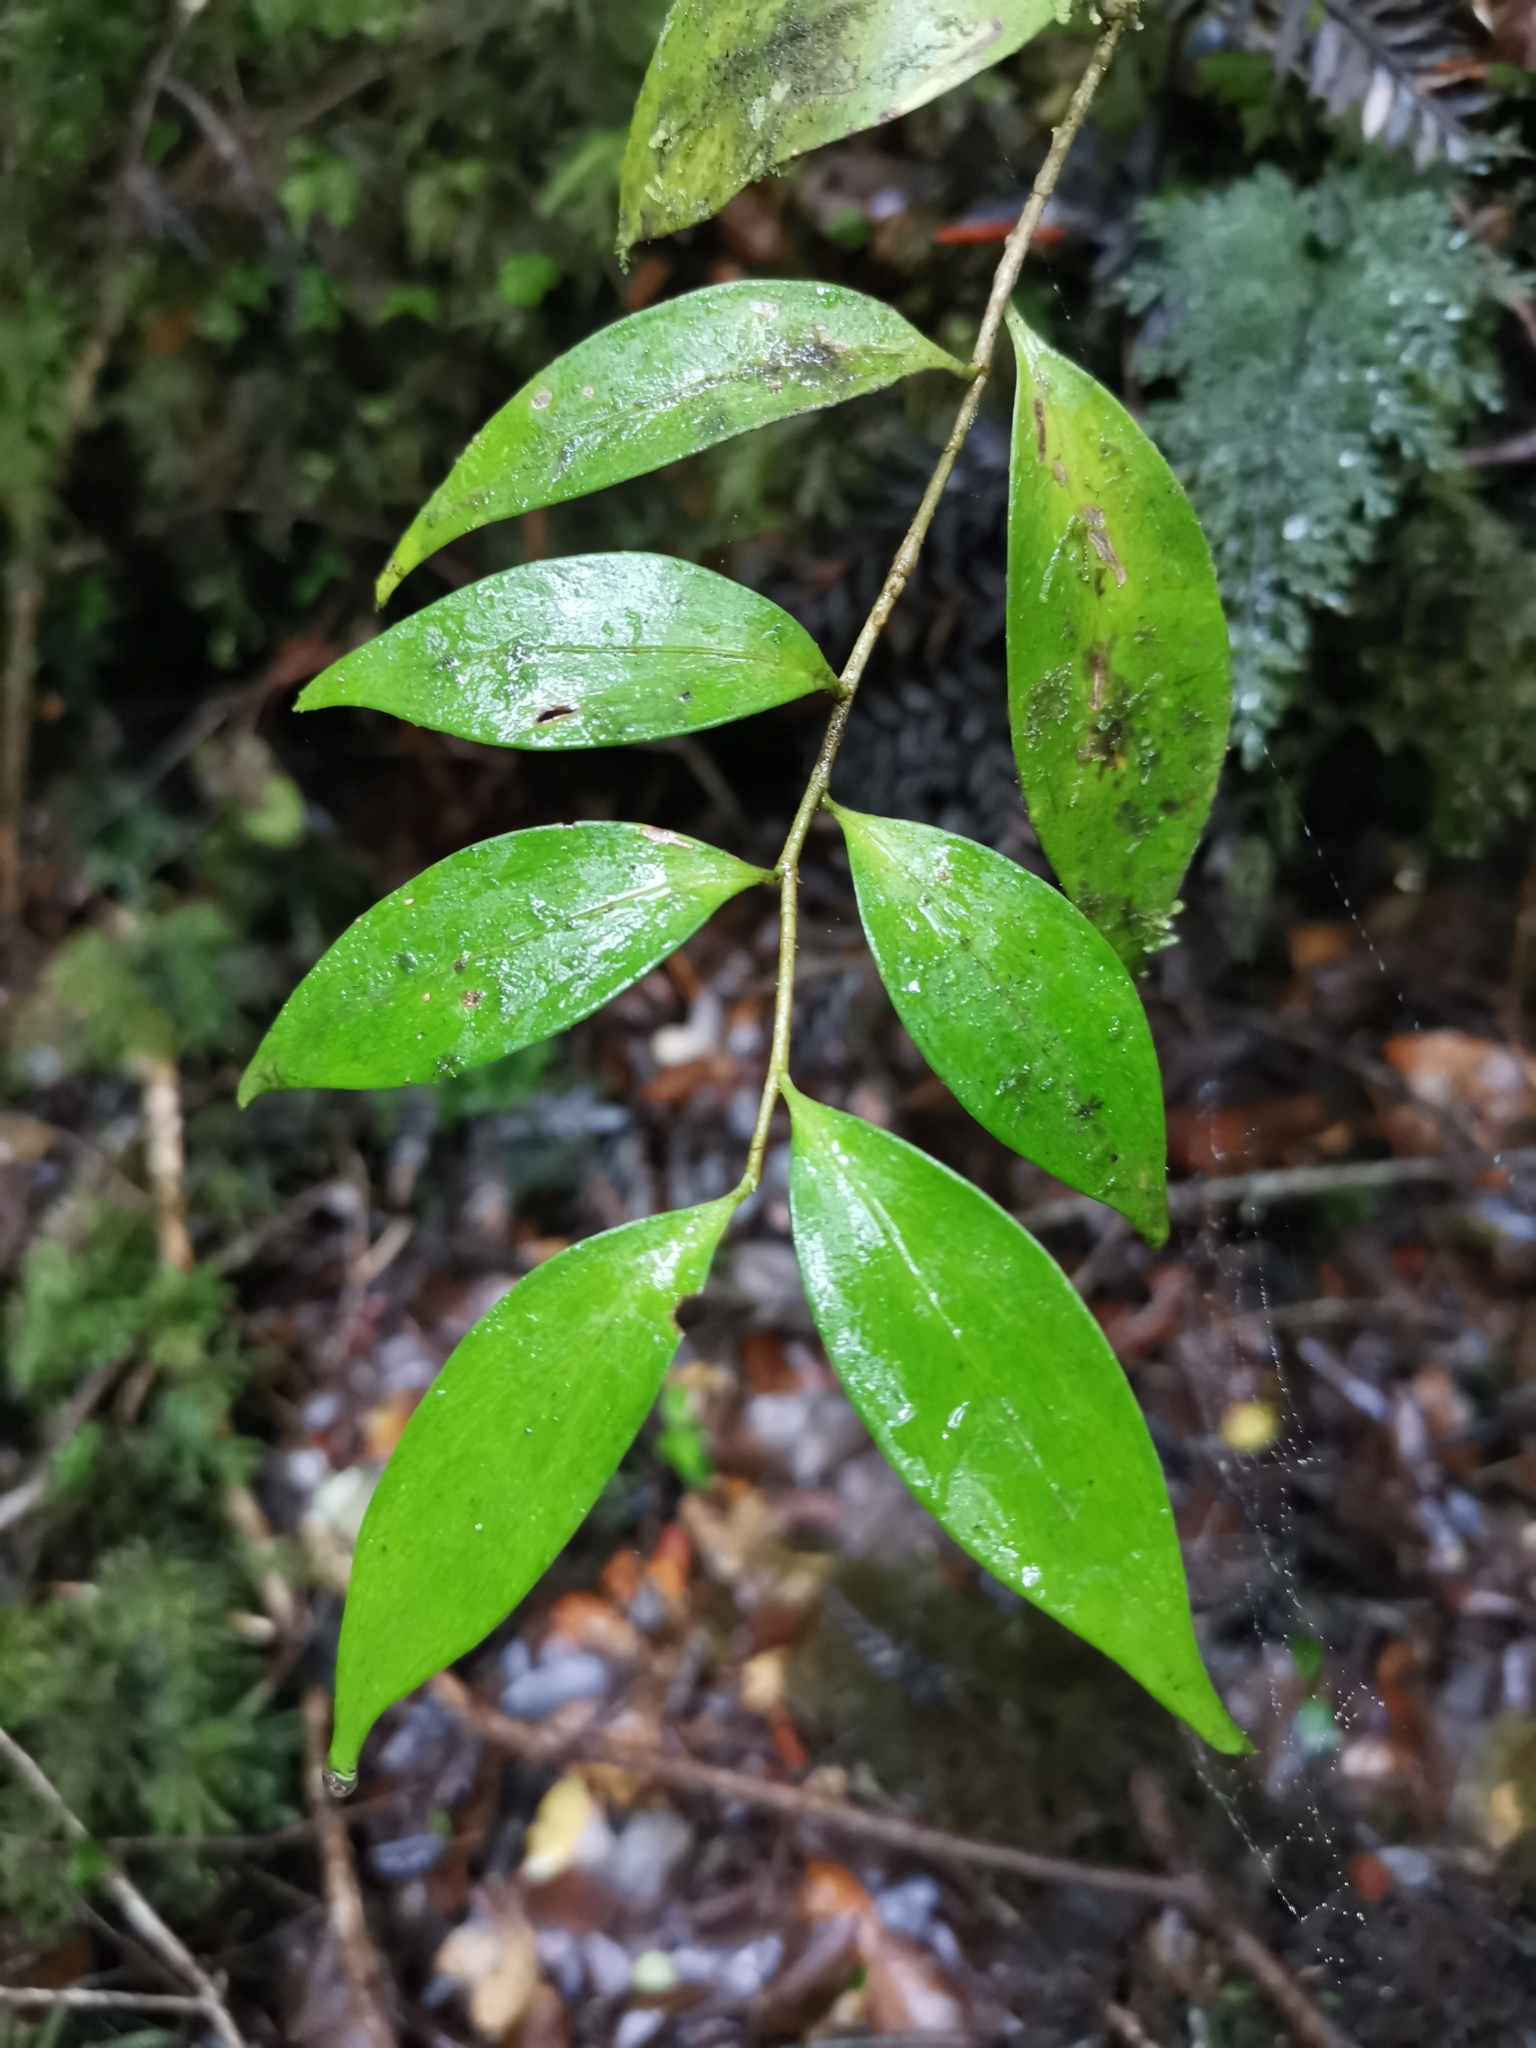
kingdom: Plantae
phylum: Tracheophyta
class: Magnoliopsida
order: Apiales
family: Griseliniaceae
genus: Griselinia
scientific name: Griselinia ruscifolia
